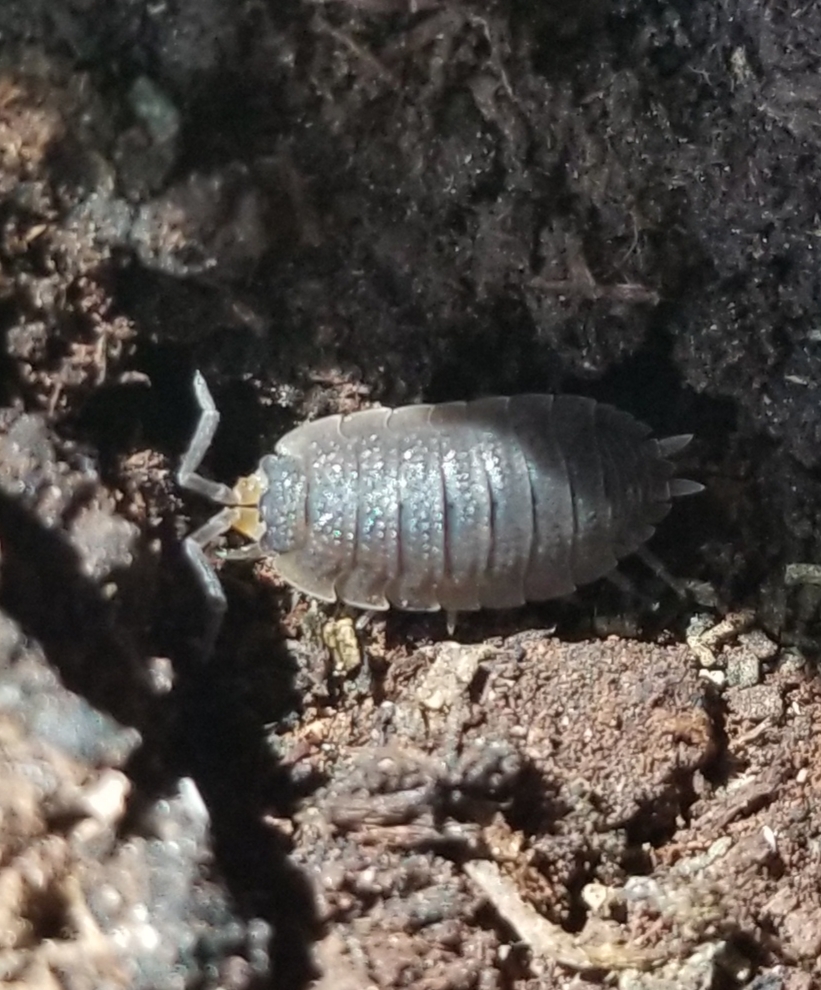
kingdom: Animalia
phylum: Arthropoda
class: Malacostraca
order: Isopoda
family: Porcellionidae
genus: Porcellio
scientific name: Porcellio scaber
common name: Common rough woodlouse
